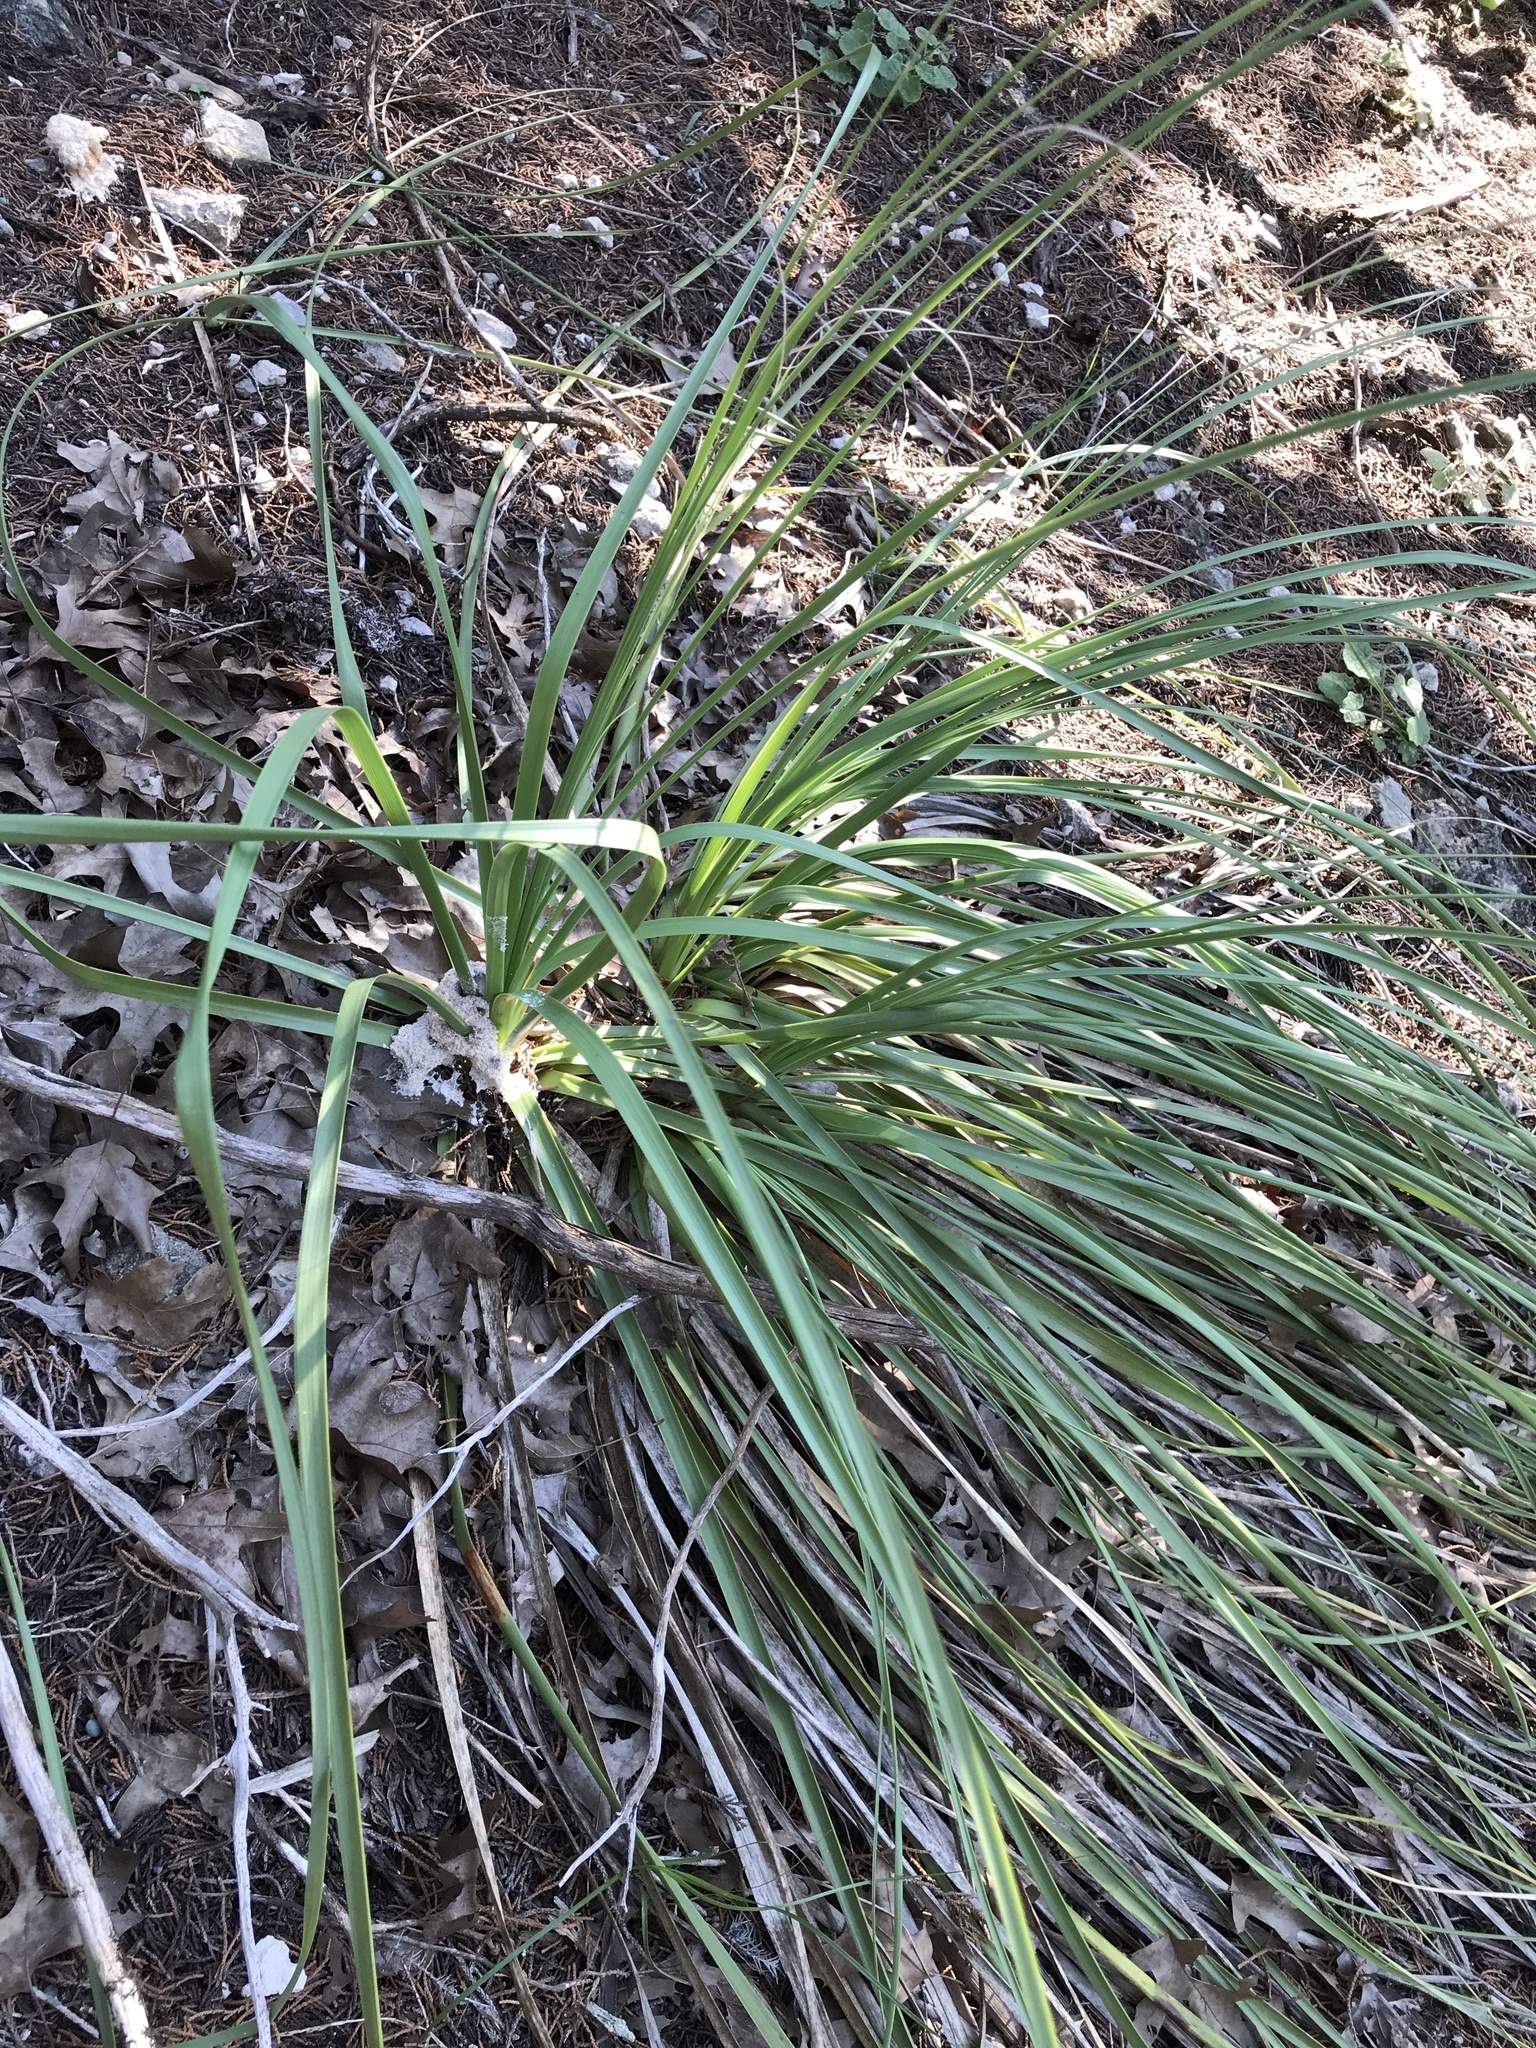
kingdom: Plantae
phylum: Tracheophyta
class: Liliopsida
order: Asparagales
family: Asparagaceae
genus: Nolina
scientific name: Nolina lindheimeriana
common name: Lindheimer's bear-grass
